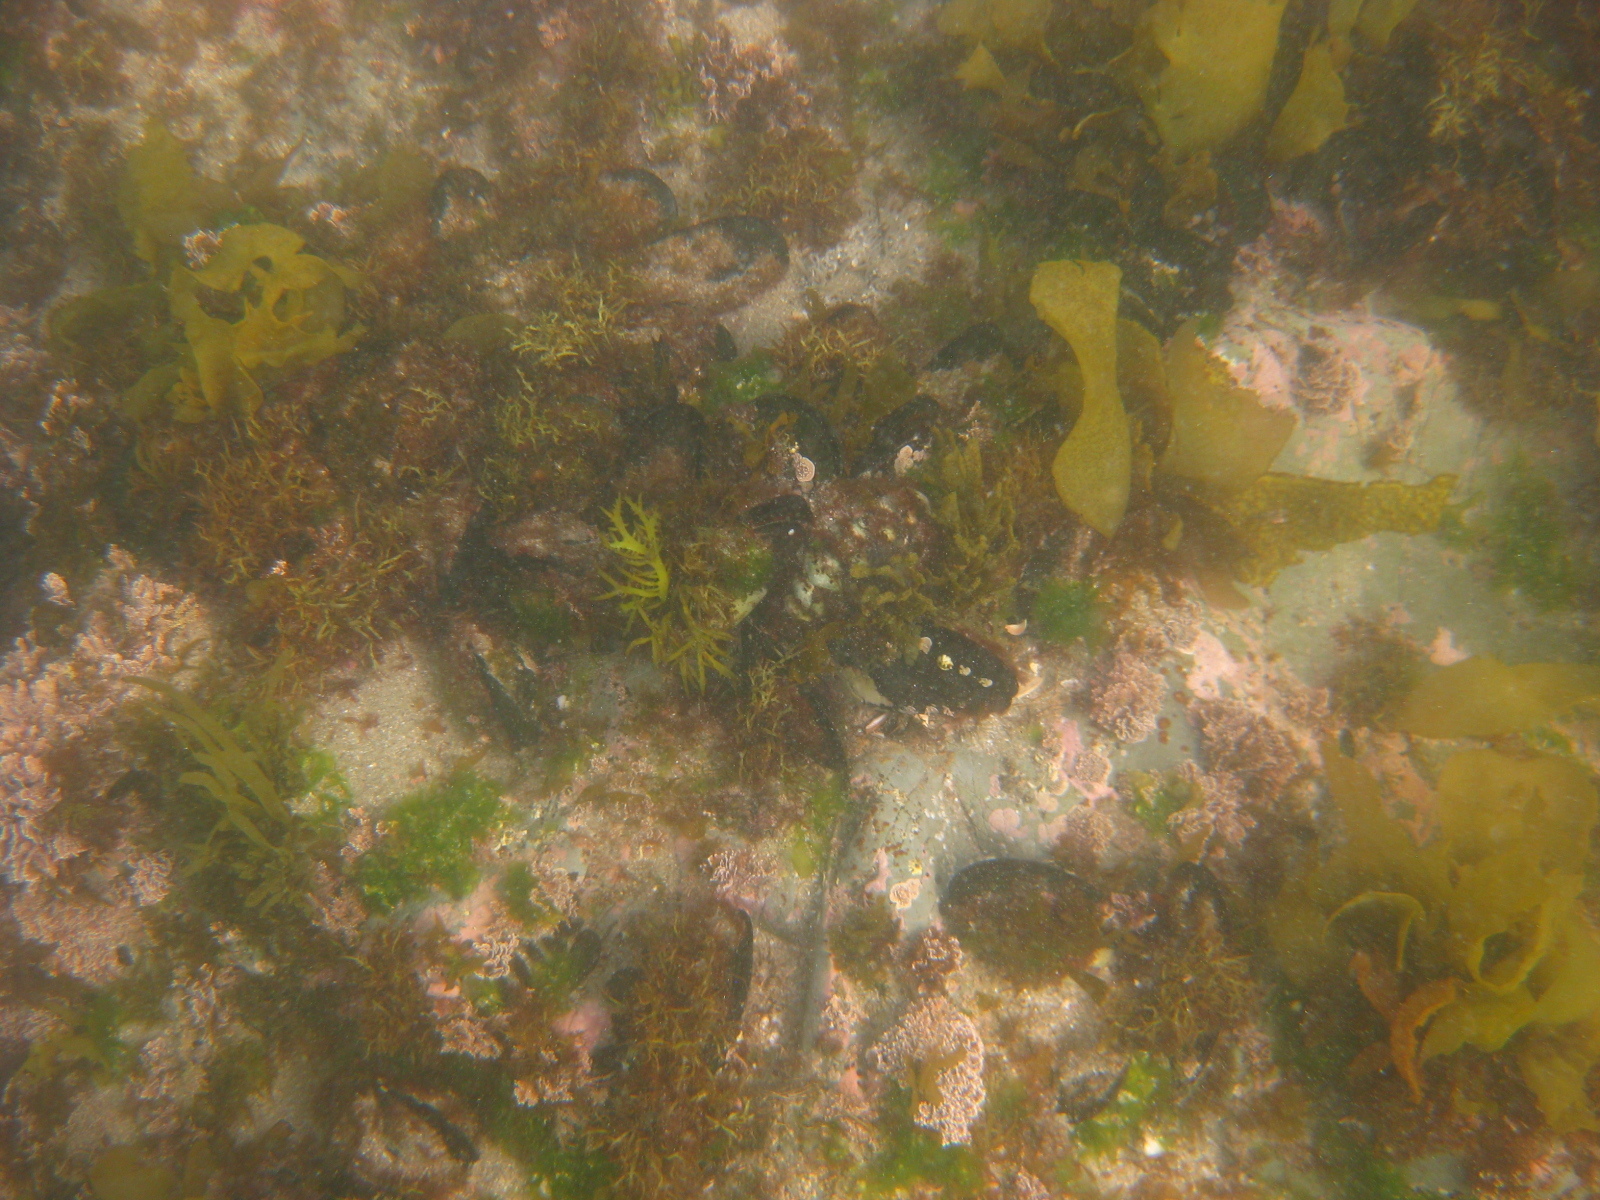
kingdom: Animalia
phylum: Mollusca
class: Bivalvia
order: Mytilida
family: Mytilidae
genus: Perna
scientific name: Perna canaliculus
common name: New zealand greenshelltm
